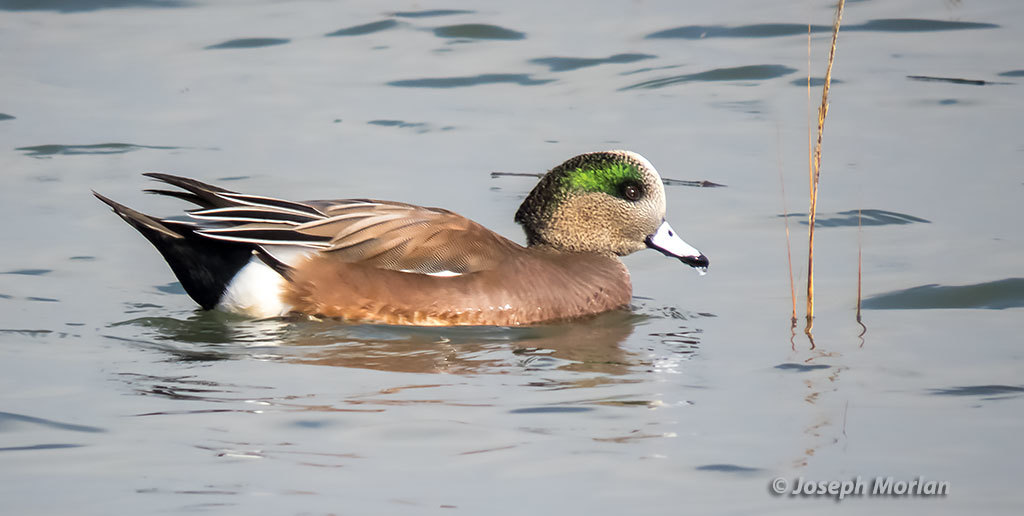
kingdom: Animalia
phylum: Chordata
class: Aves
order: Anseriformes
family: Anatidae
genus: Mareca
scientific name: Mareca americana
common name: American wigeon
